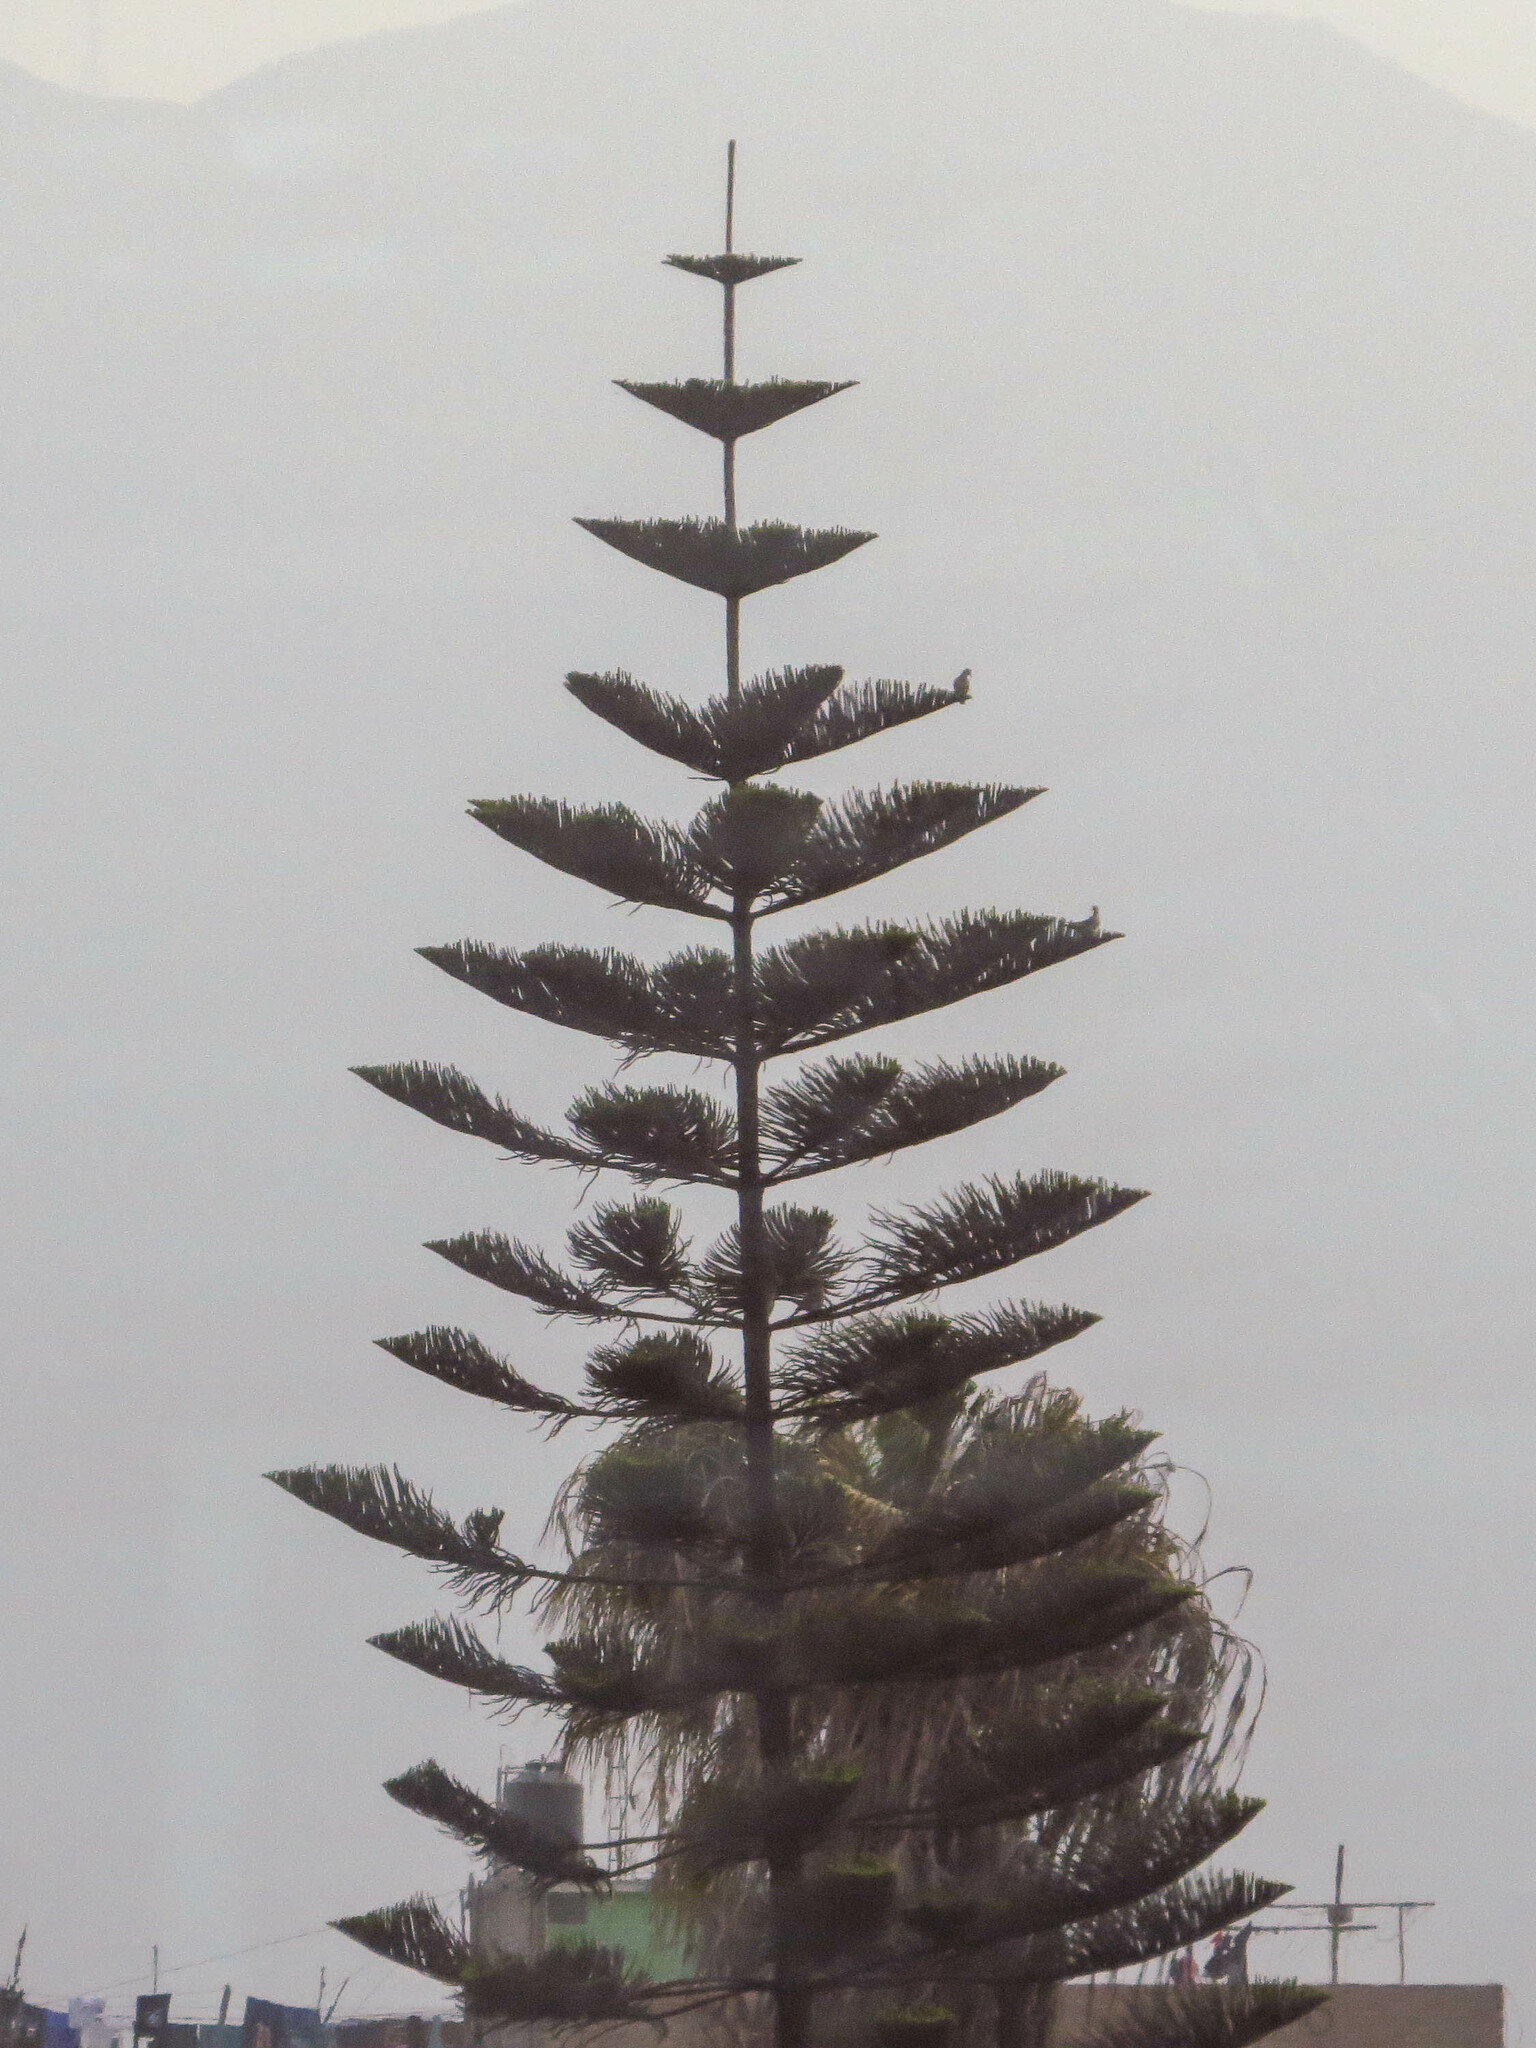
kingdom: Plantae
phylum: Tracheophyta
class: Pinopsida
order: Pinales
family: Araucariaceae
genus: Araucaria
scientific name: Araucaria heterophylla
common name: Norfolk island pine
